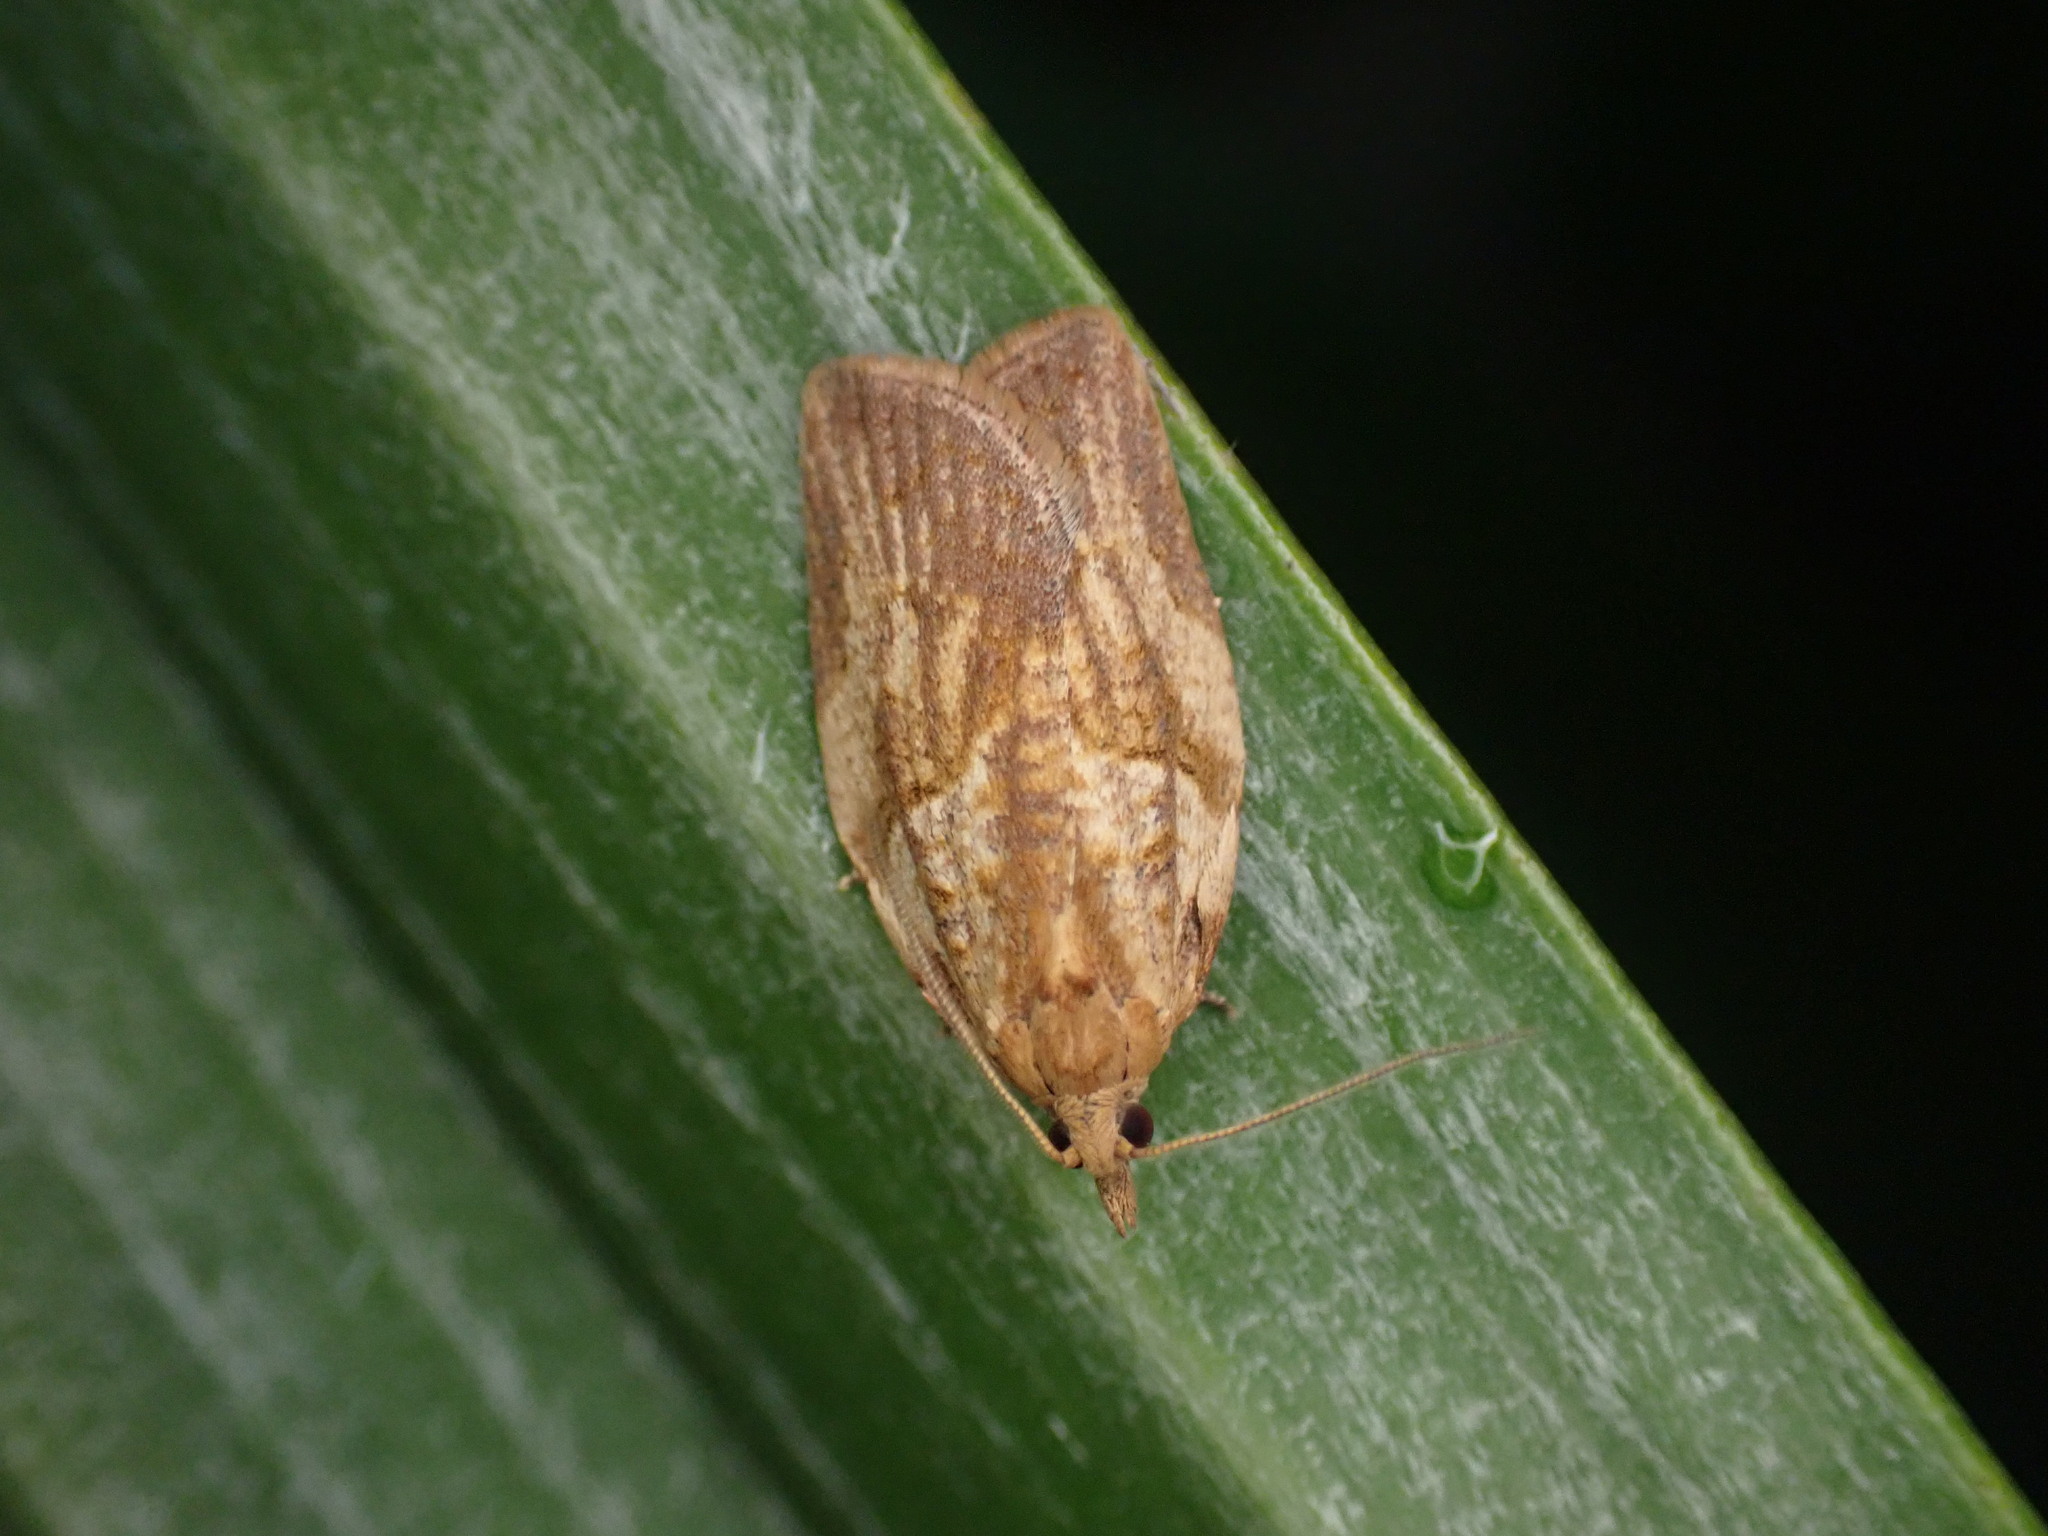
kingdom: Animalia
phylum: Arthropoda
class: Insecta
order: Lepidoptera
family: Tortricidae
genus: Epiphyas
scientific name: Epiphyas postvittana
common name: Light brown apple moth
